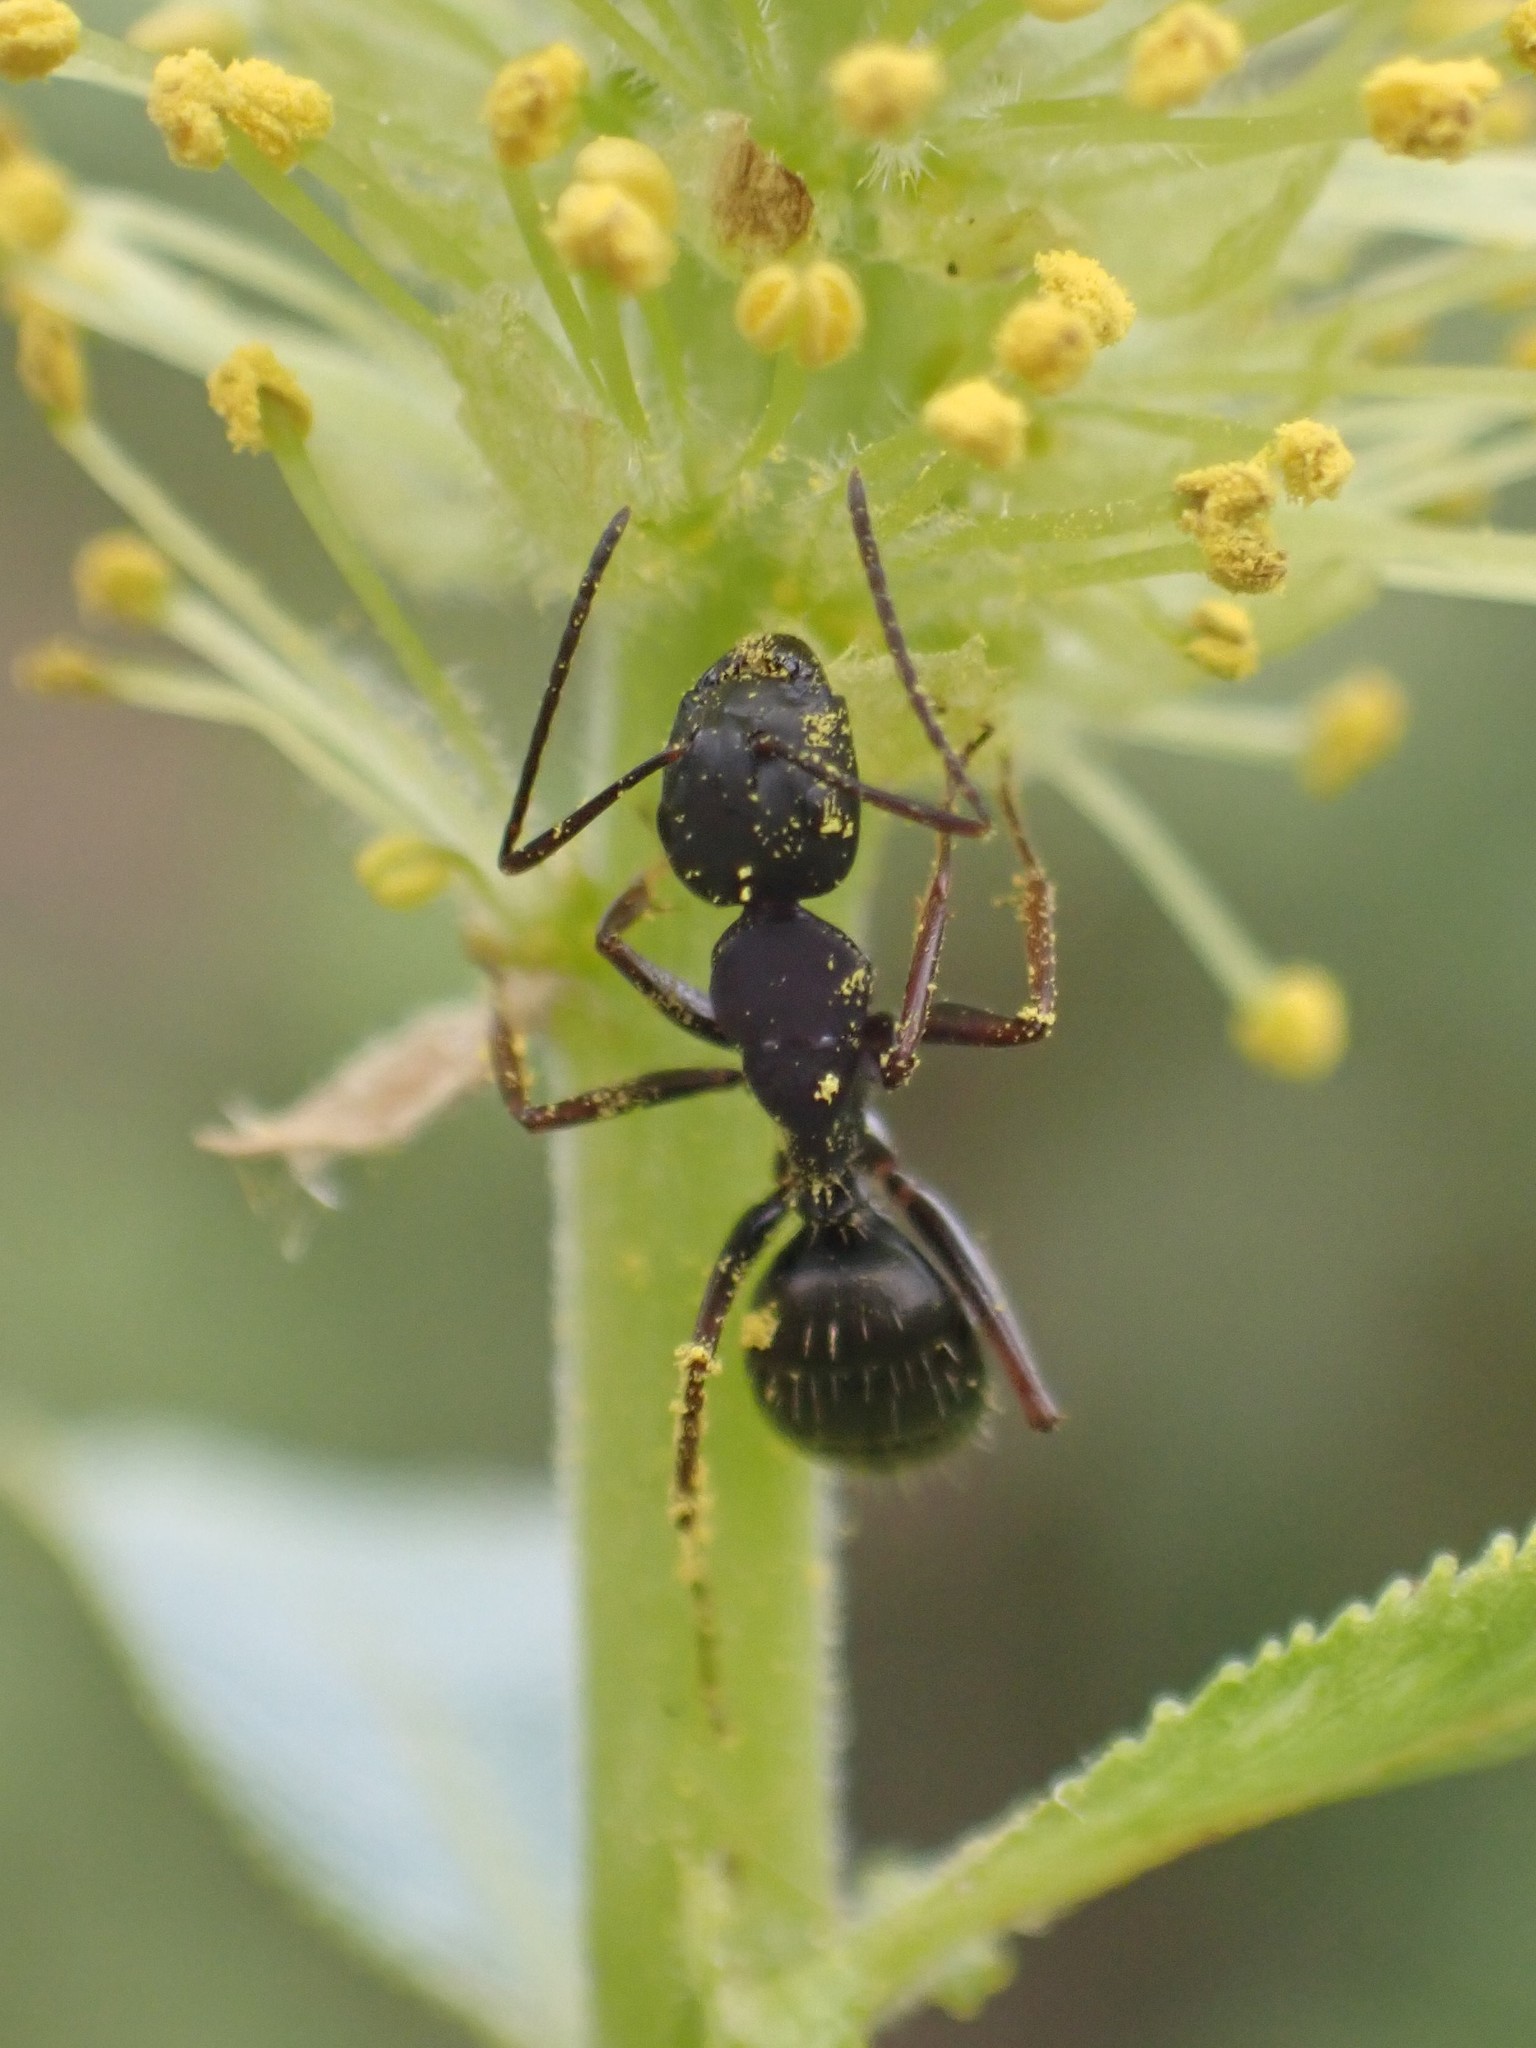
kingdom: Animalia
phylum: Arthropoda
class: Insecta
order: Hymenoptera
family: Formicidae
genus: Camponotus
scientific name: Camponotus modoc
